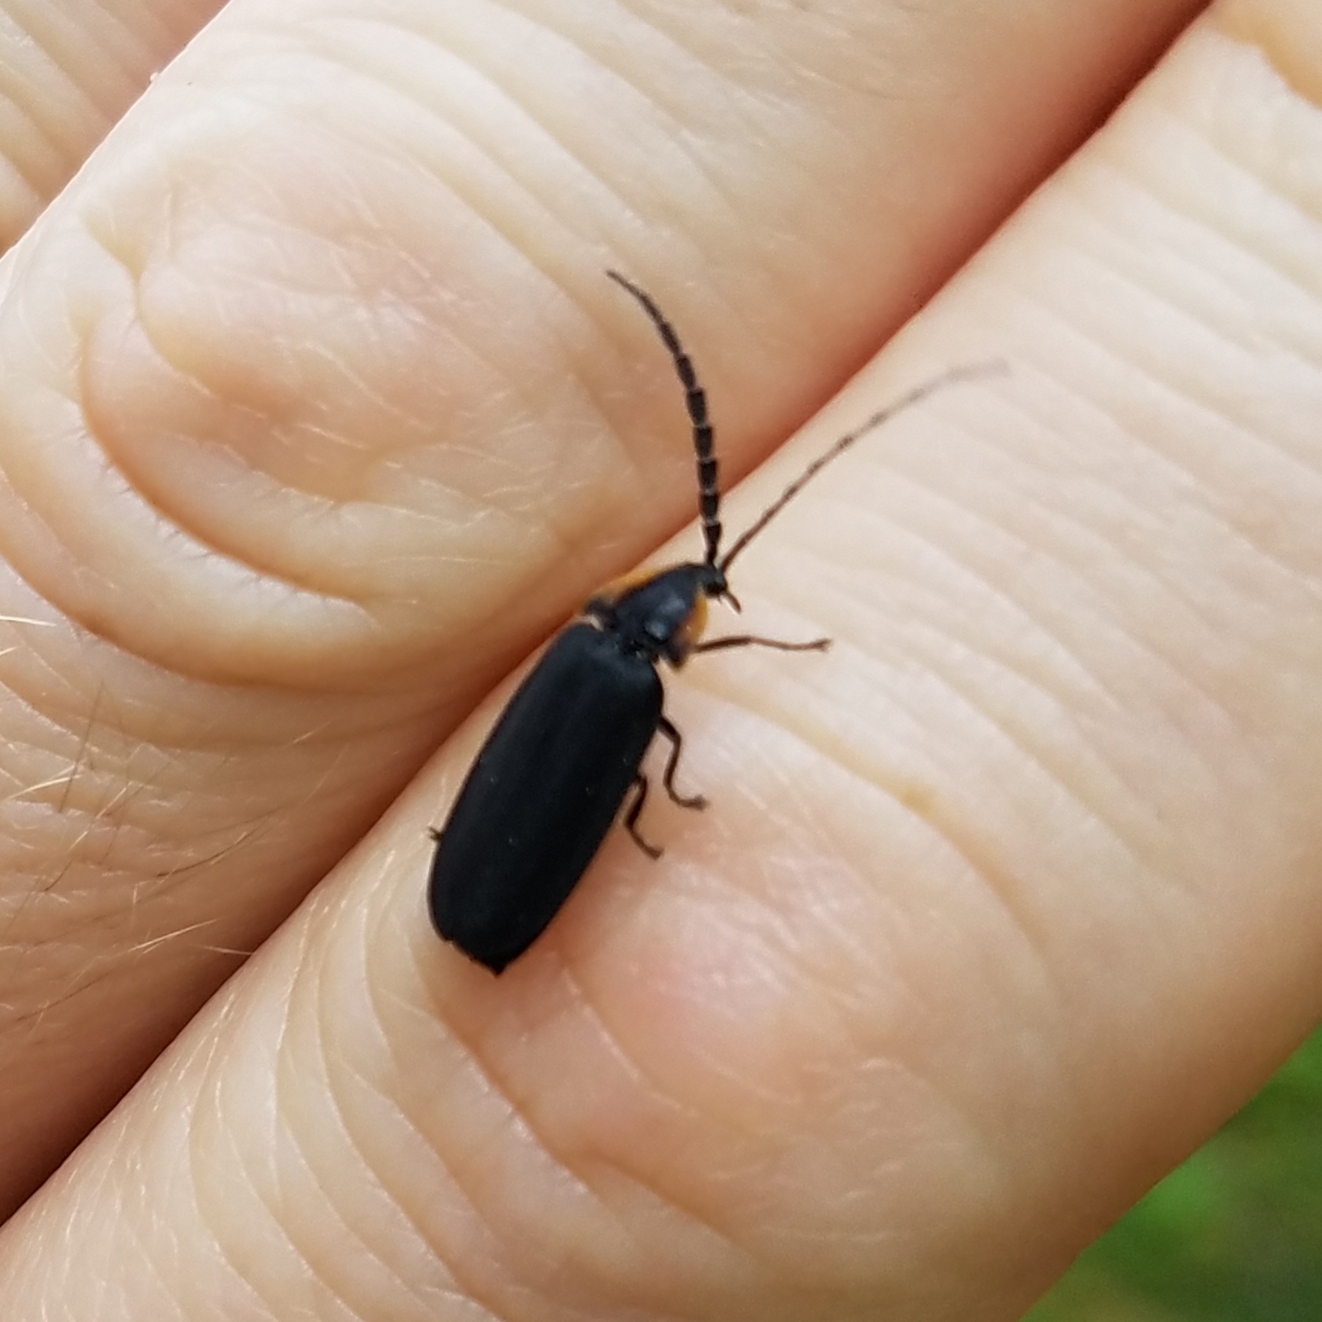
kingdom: Animalia
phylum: Arthropoda
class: Insecta
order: Coleoptera
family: Lampyridae
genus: Lucidota
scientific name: Lucidota atra
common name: Black firefly
